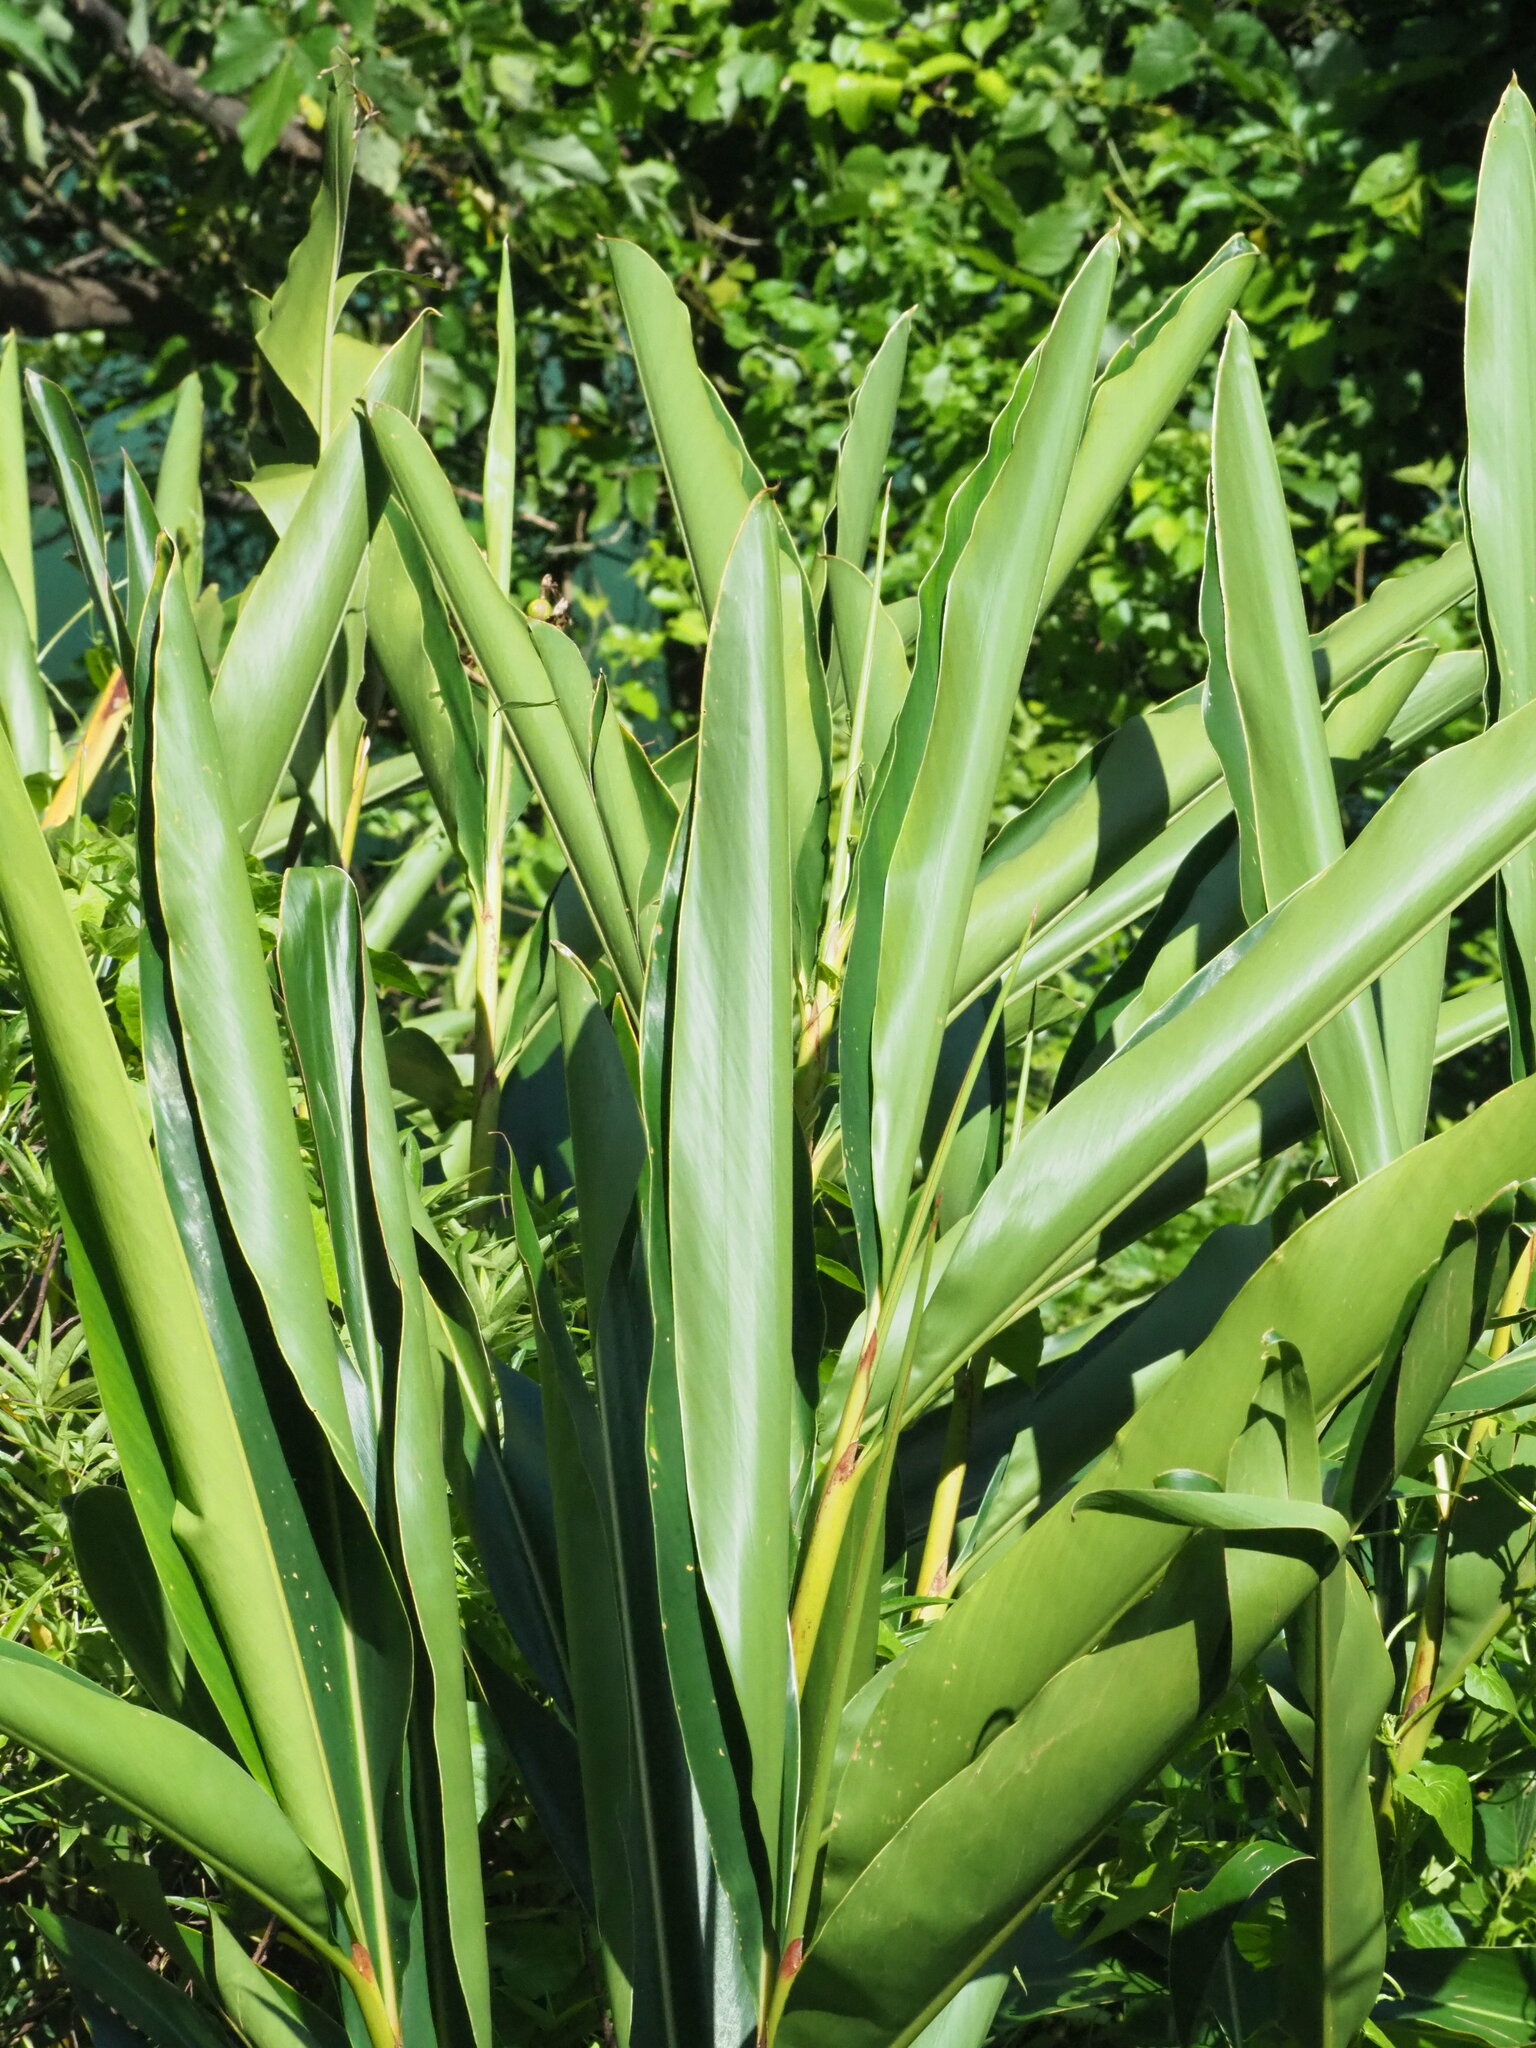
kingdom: Plantae
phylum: Tracheophyta
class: Liliopsida
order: Zingiberales
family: Zingiberaceae
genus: Alpinia
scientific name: Alpinia zerumbet
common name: Shellplant
